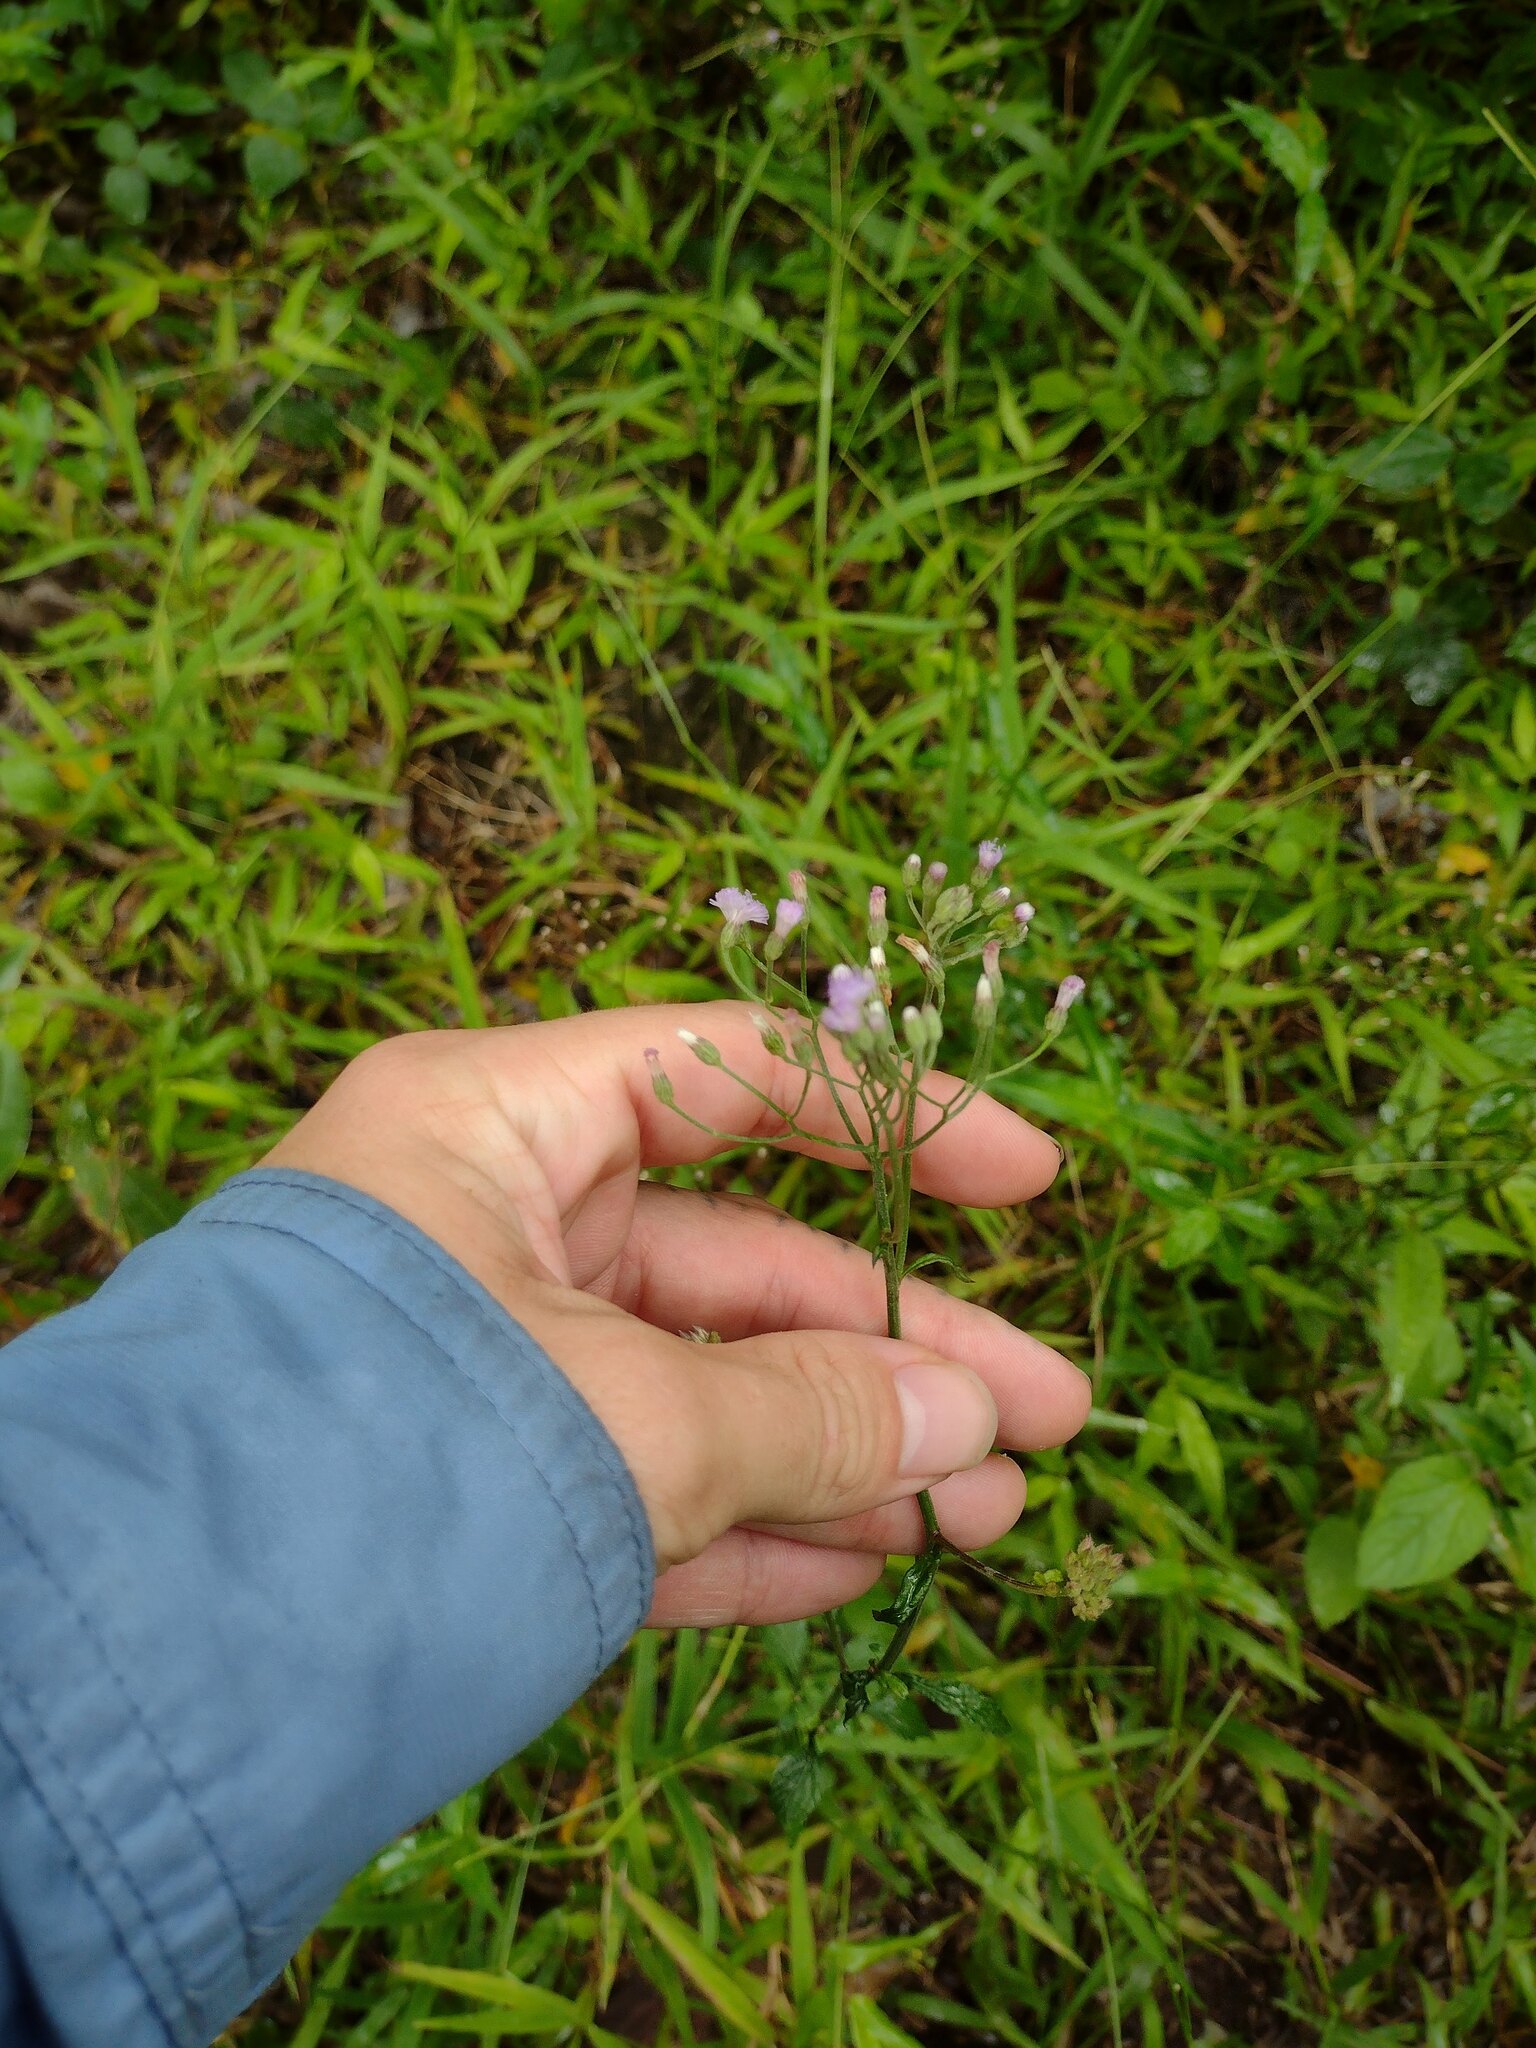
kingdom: Plantae
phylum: Tracheophyta
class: Magnoliopsida
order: Asterales
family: Asteraceae
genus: Cyanthillium
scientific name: Cyanthillium cinereum
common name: Little ironweed
